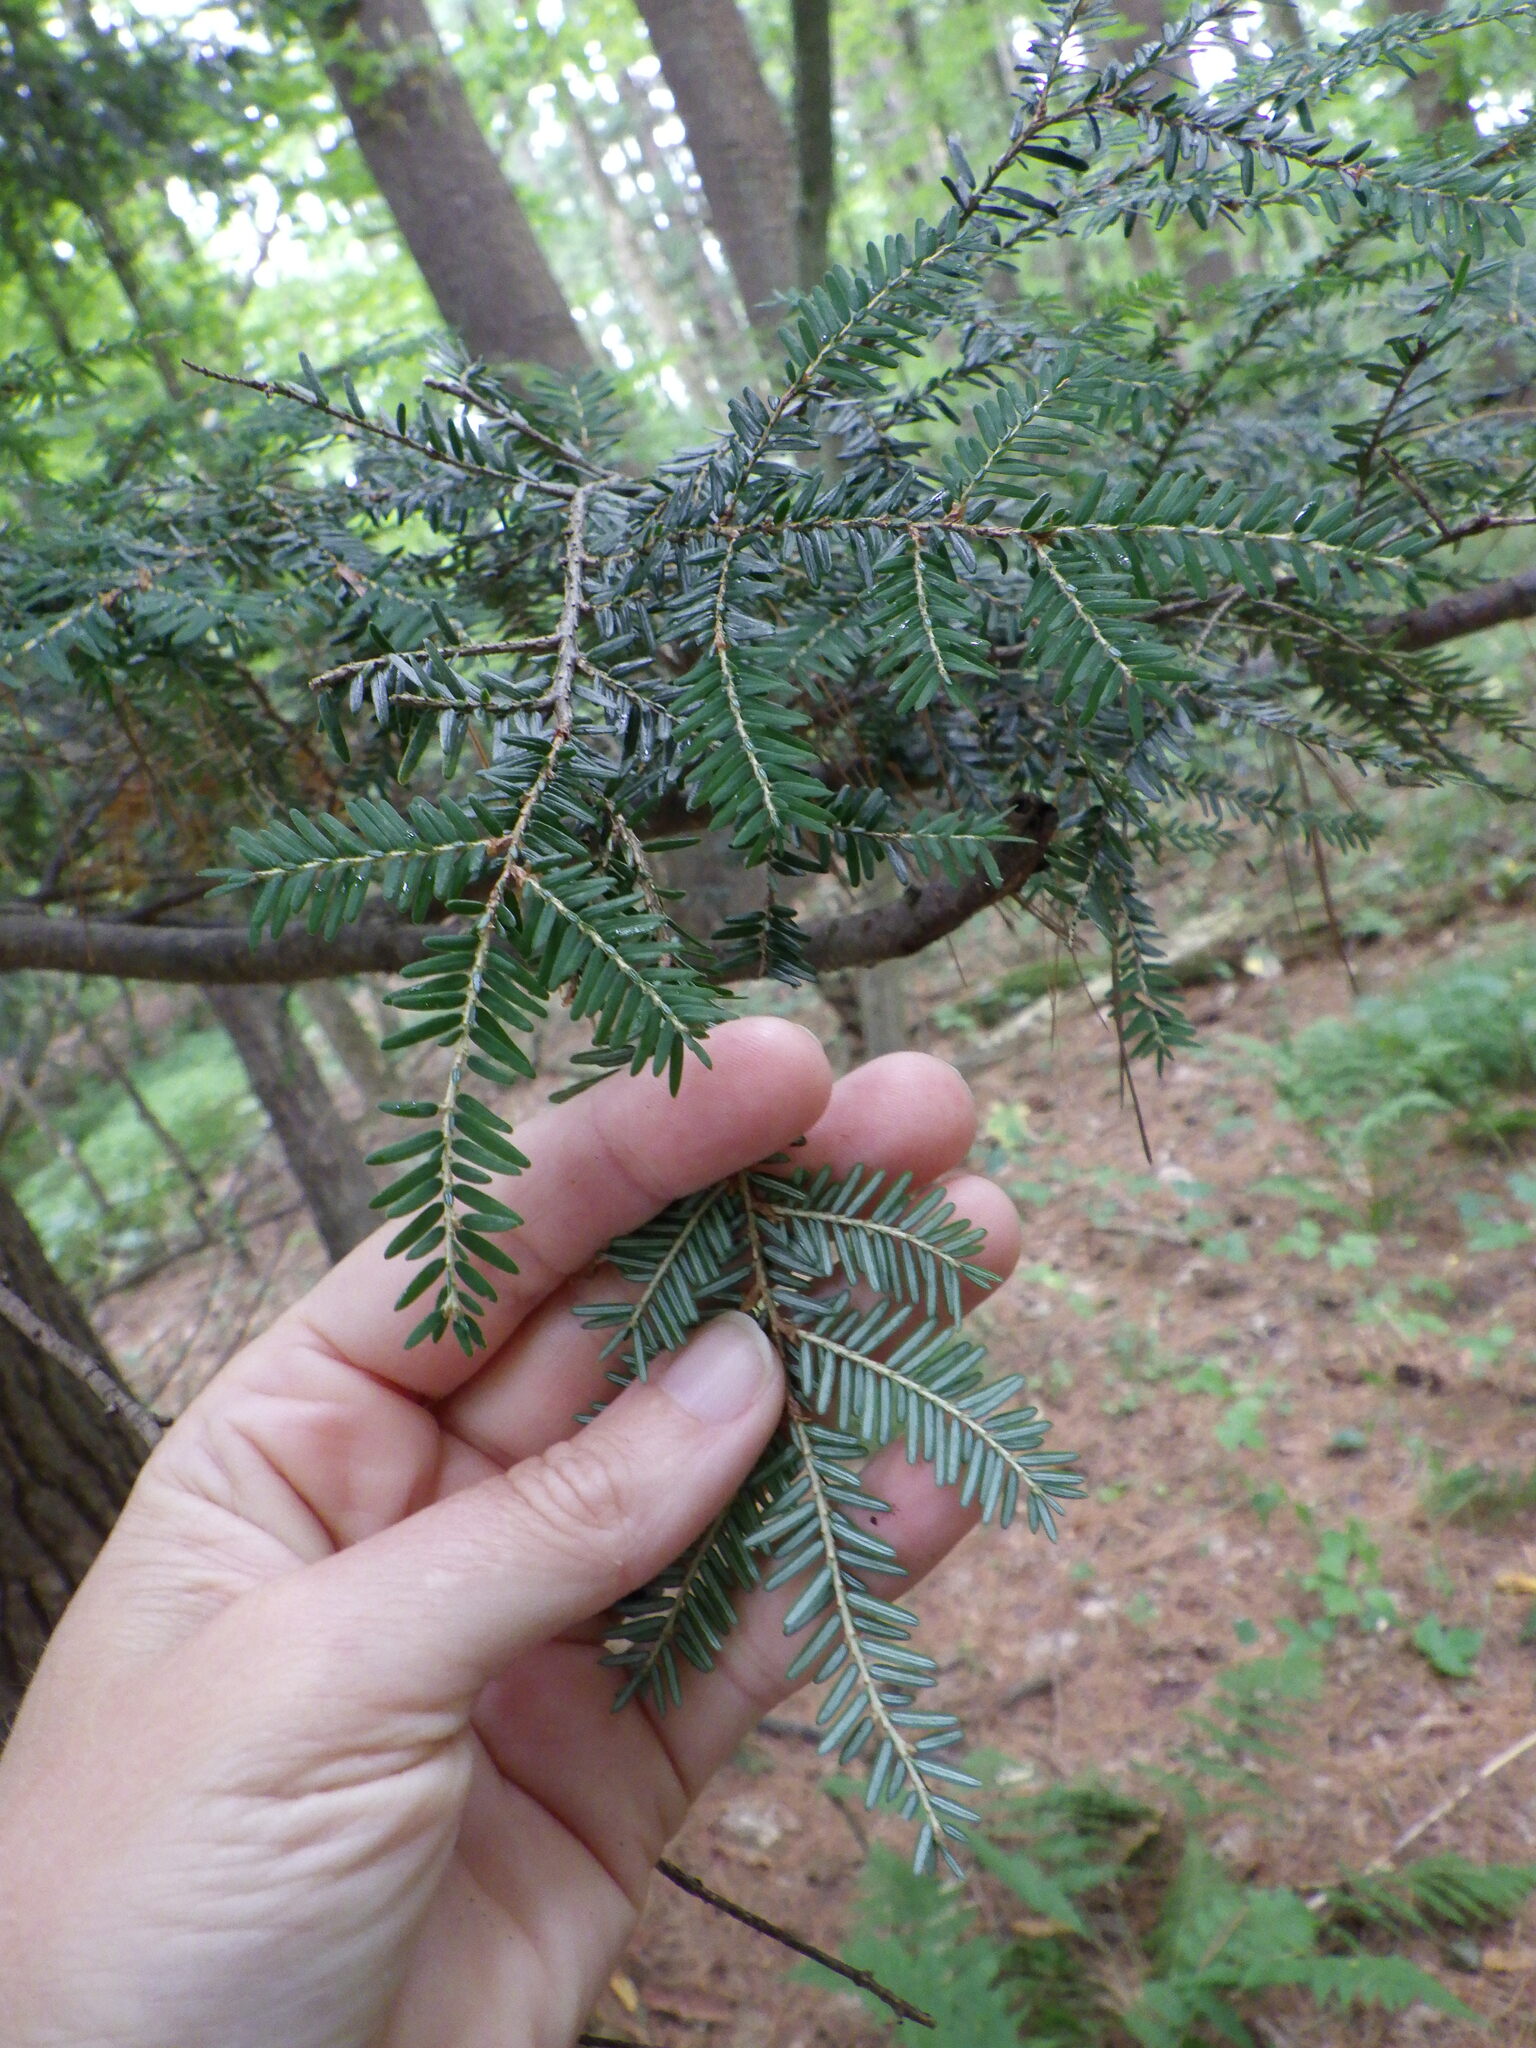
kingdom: Plantae
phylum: Tracheophyta
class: Pinopsida
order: Pinales
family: Pinaceae
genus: Tsuga
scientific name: Tsuga canadensis
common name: Eastern hemlock
